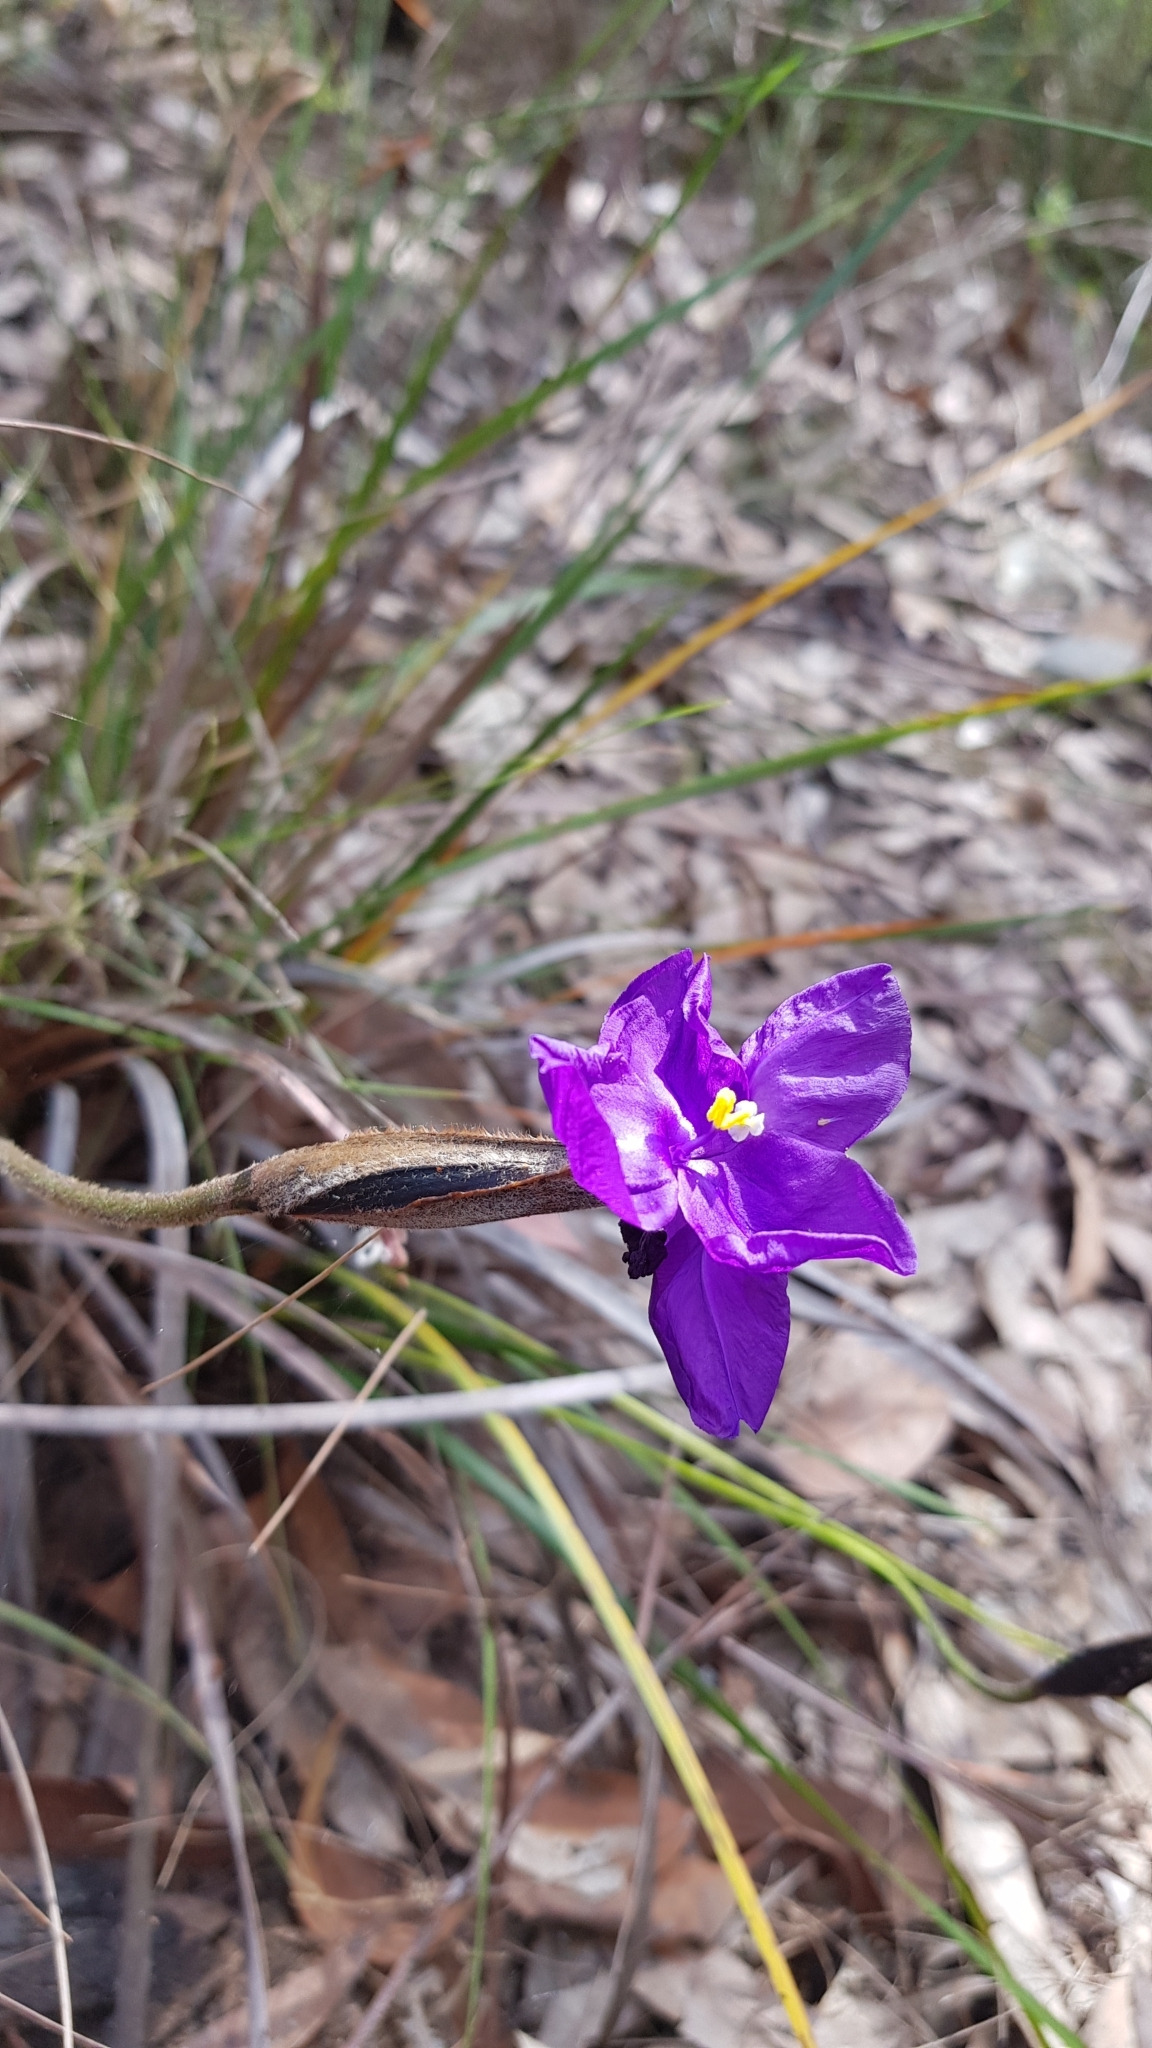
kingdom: Plantae
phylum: Tracheophyta
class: Liliopsida
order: Asparagales
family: Iridaceae
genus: Patersonia
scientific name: Patersonia sericea
